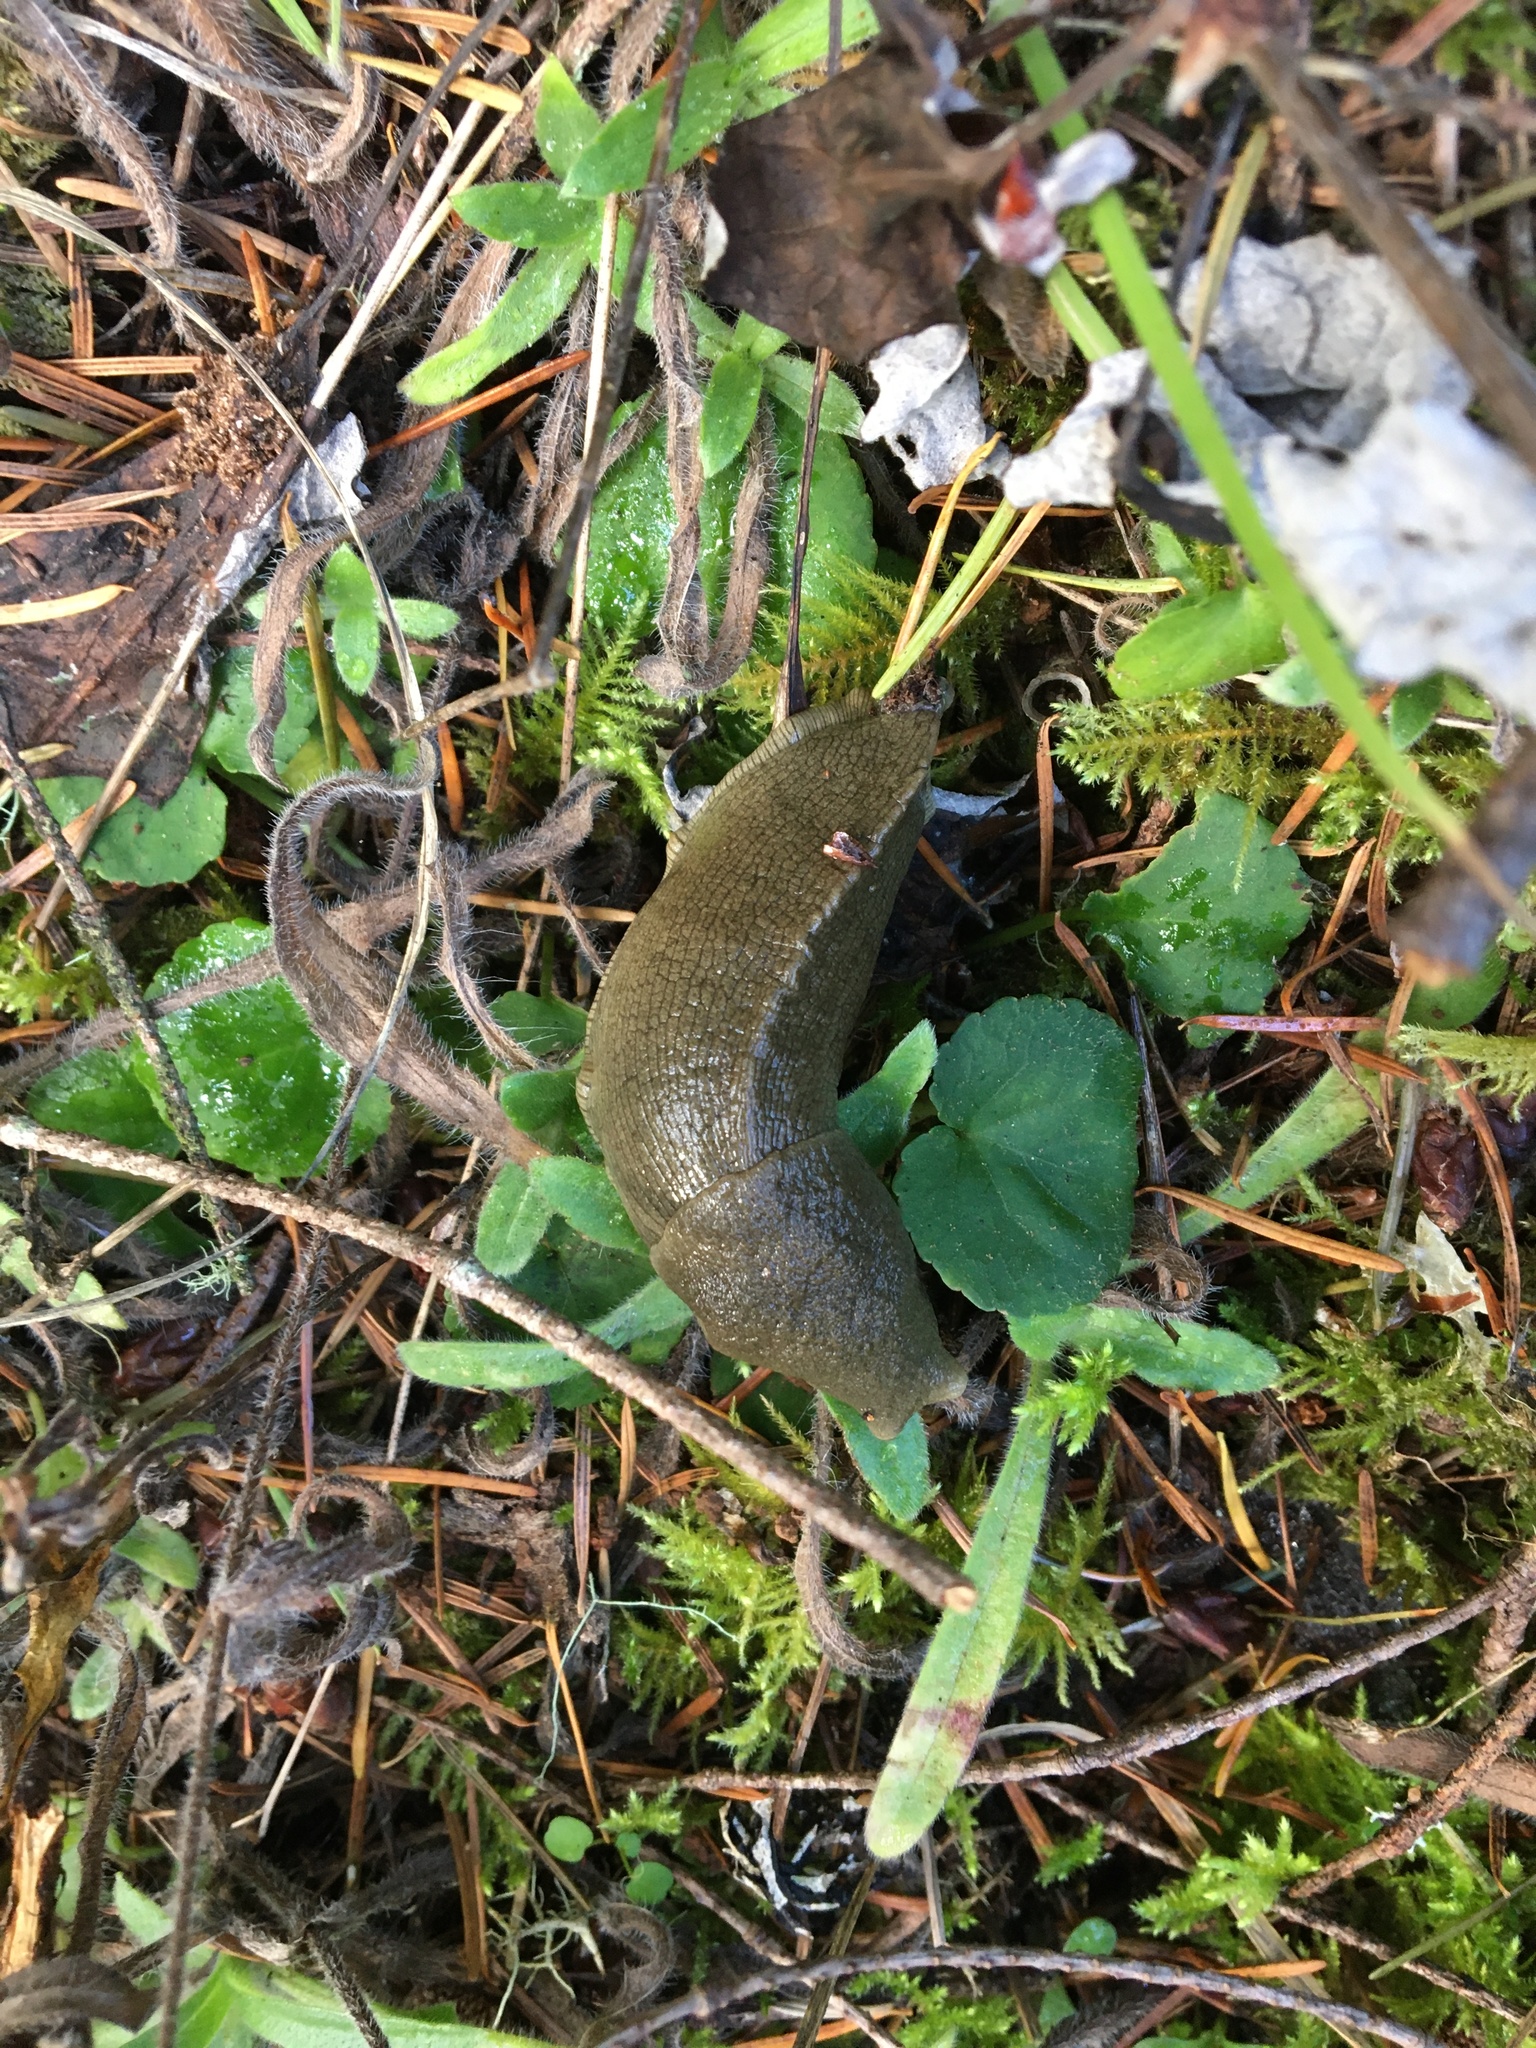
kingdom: Animalia
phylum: Mollusca
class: Gastropoda
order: Stylommatophora
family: Ariolimacidae
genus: Ariolimax
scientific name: Ariolimax columbianus
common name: Pacific banana slug
